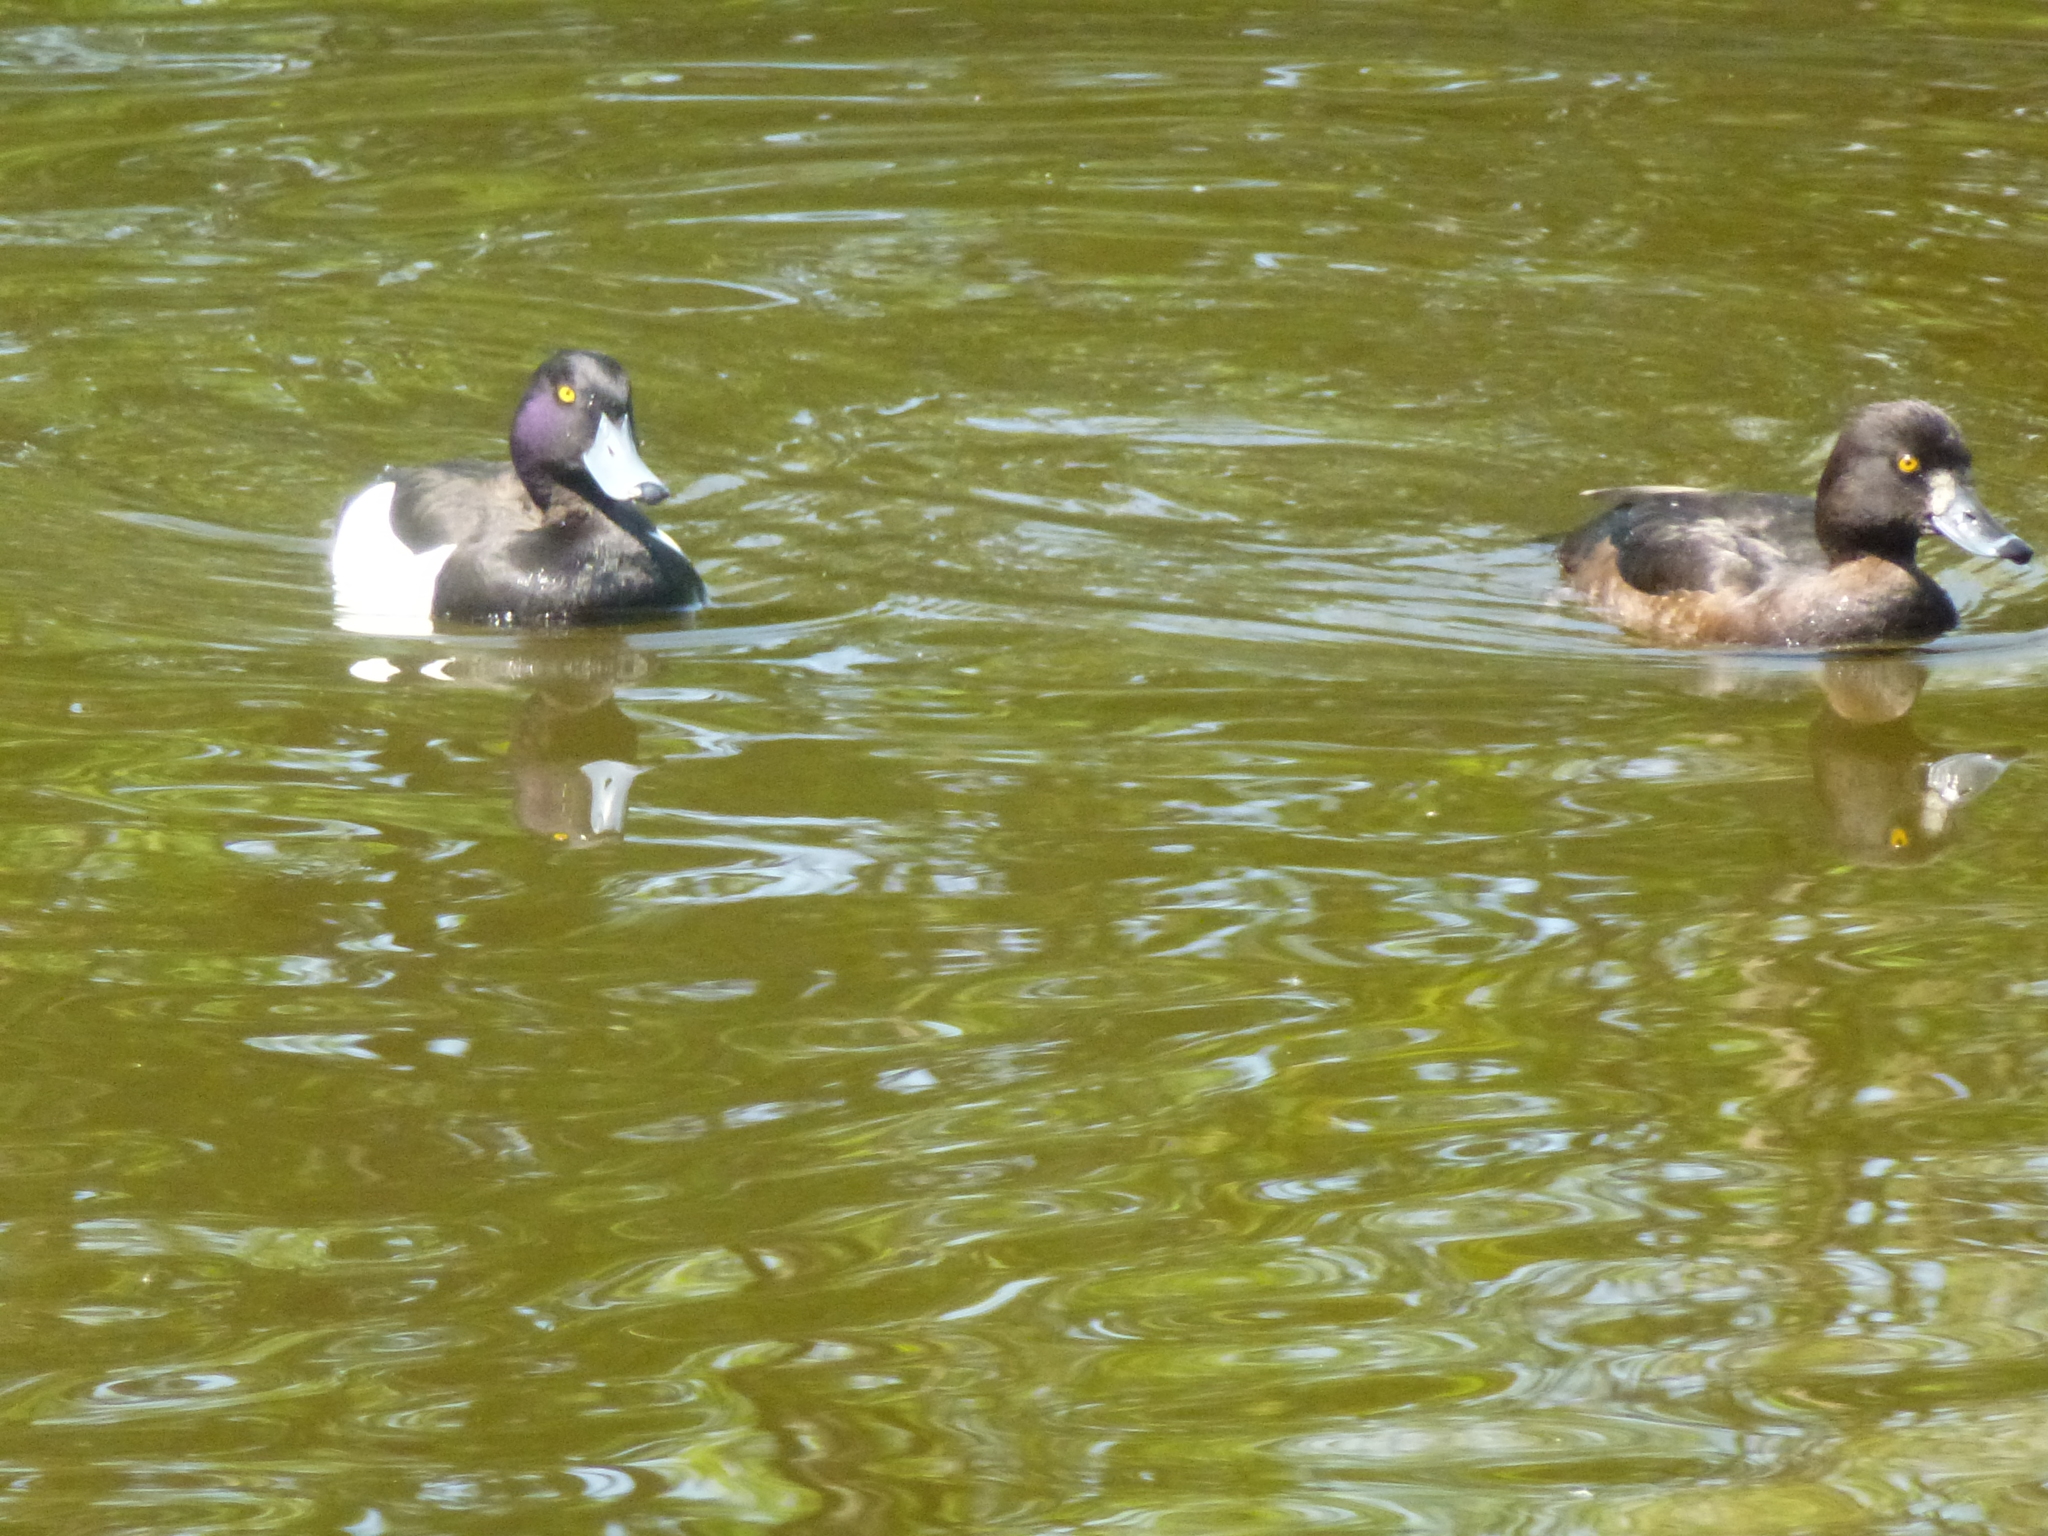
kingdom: Animalia
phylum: Chordata
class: Aves
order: Anseriformes
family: Anatidae
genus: Aythya
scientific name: Aythya fuligula
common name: Tufted duck
